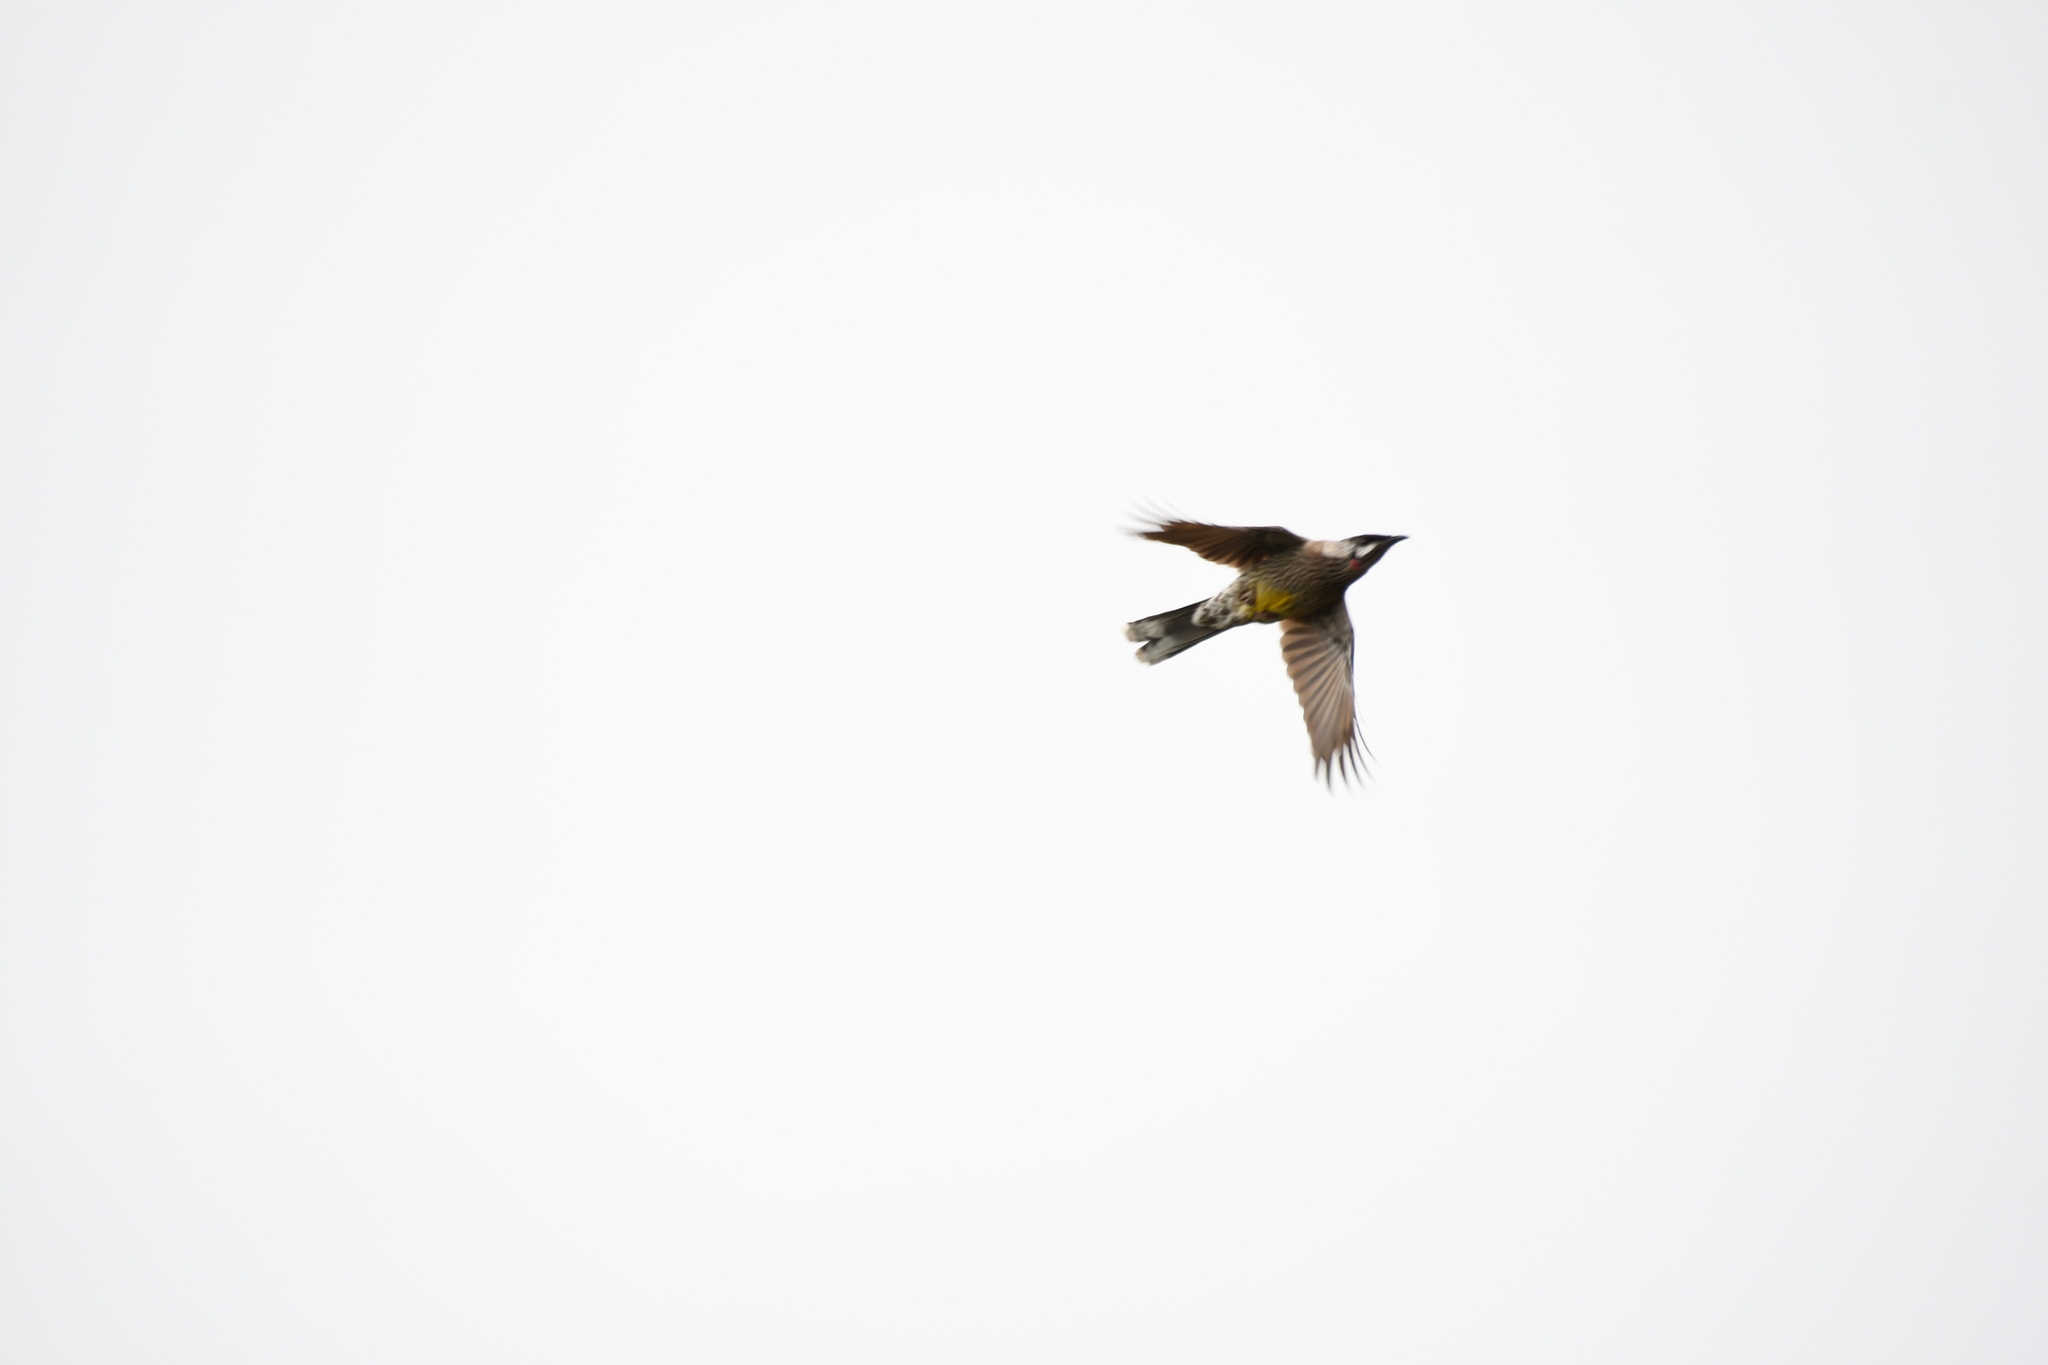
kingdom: Animalia
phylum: Chordata
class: Aves
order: Passeriformes
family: Meliphagidae
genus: Anthochaera
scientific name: Anthochaera carunculata
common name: Red wattlebird
